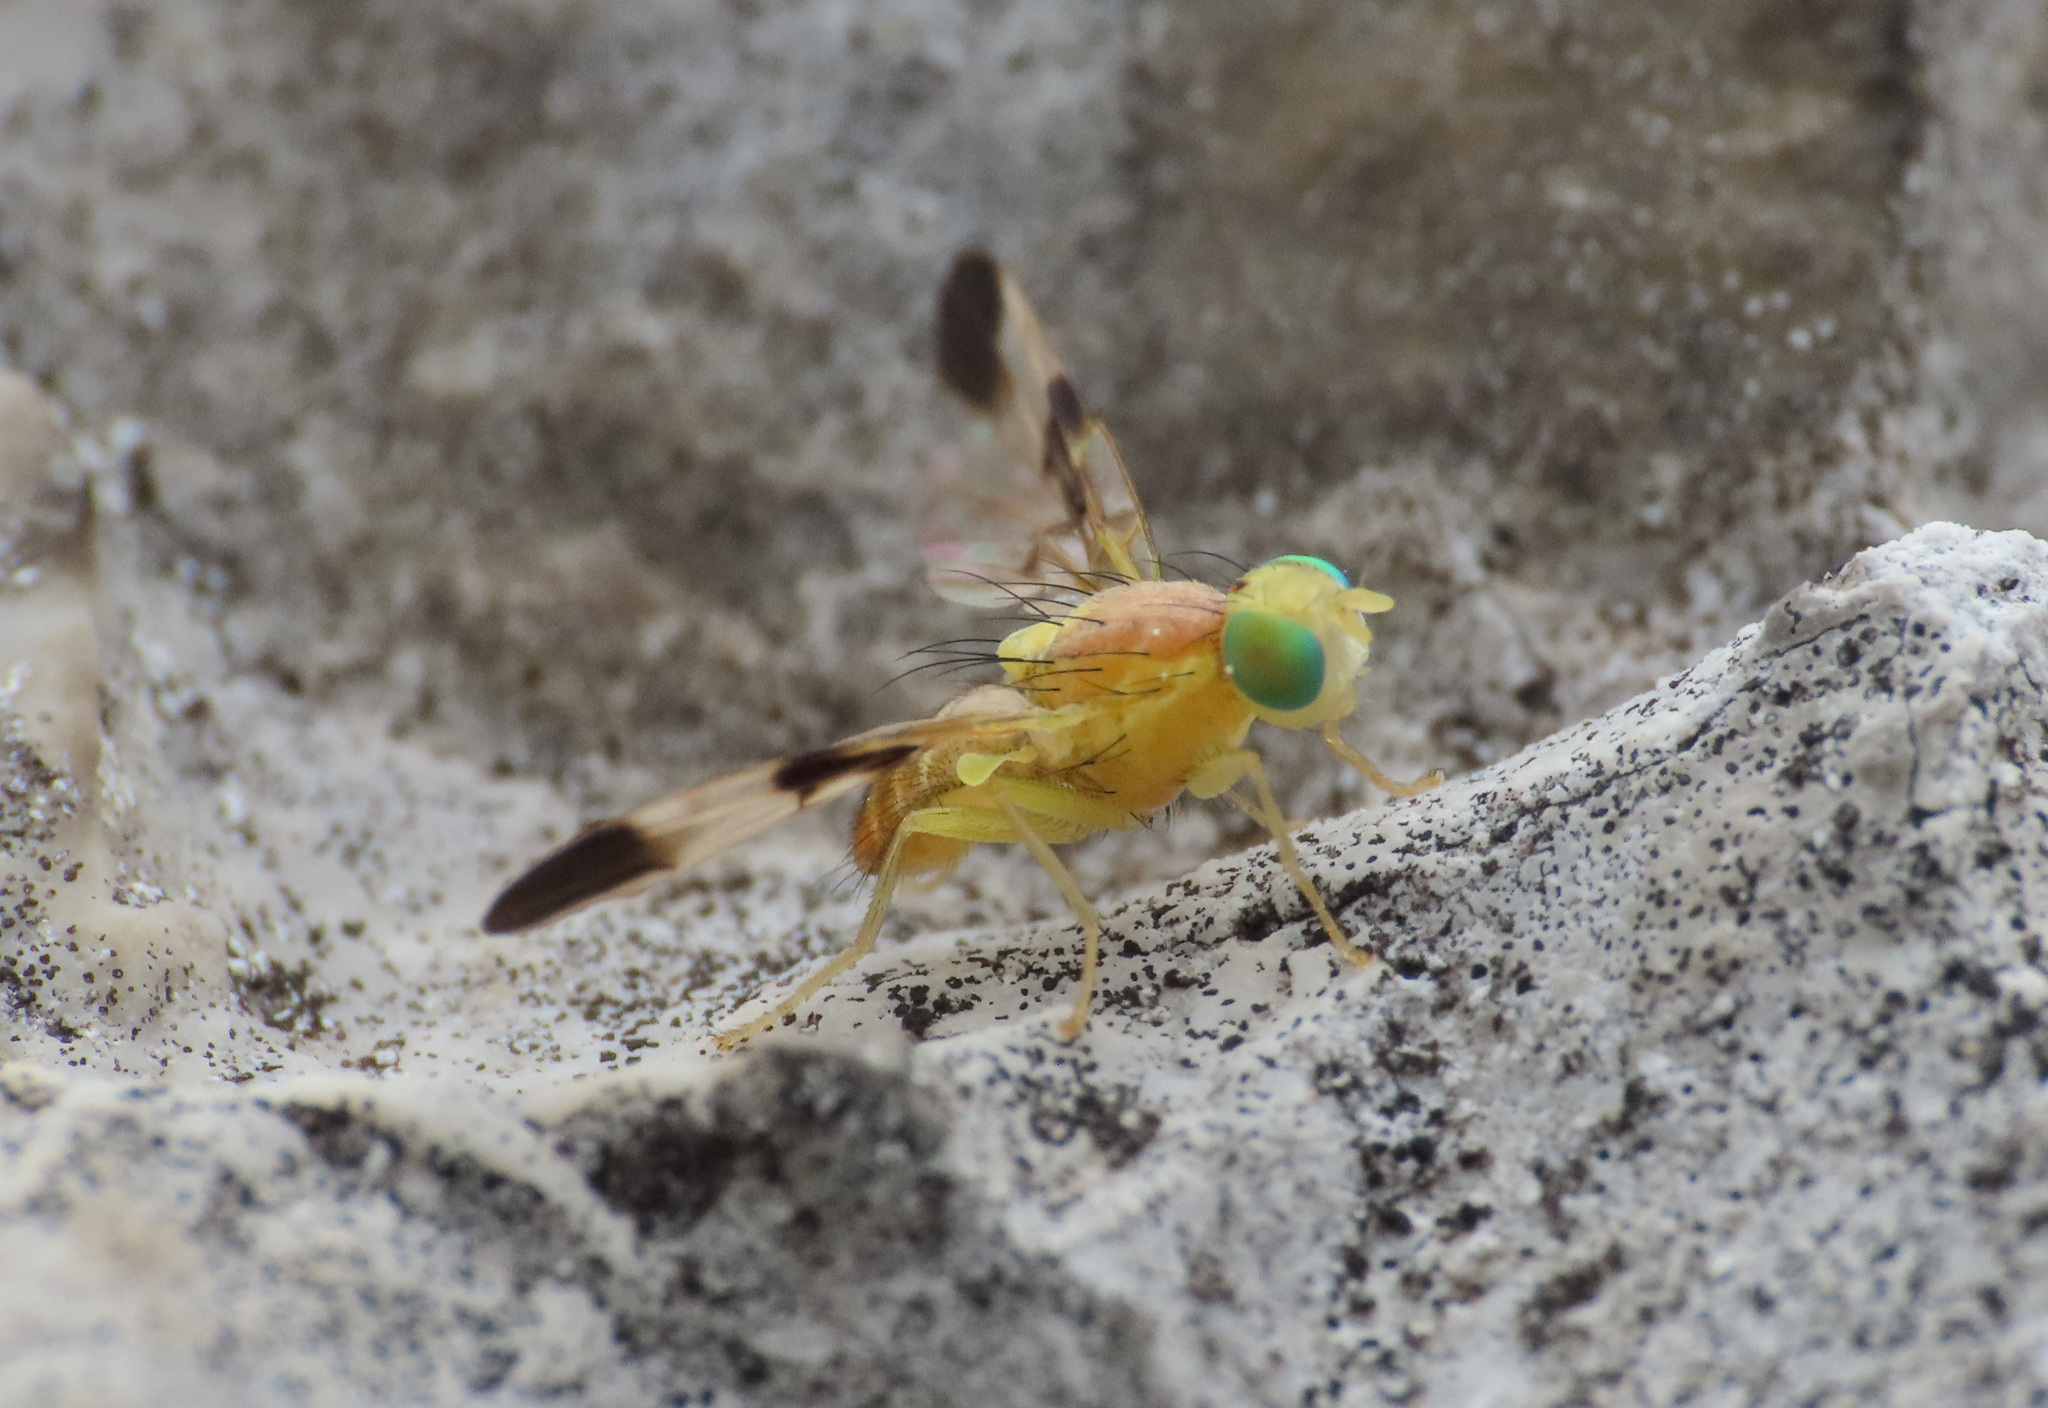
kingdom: Animalia
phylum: Arthropoda
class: Insecta
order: Diptera
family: Tephritidae
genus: Trypeta
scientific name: Trypeta zoe
